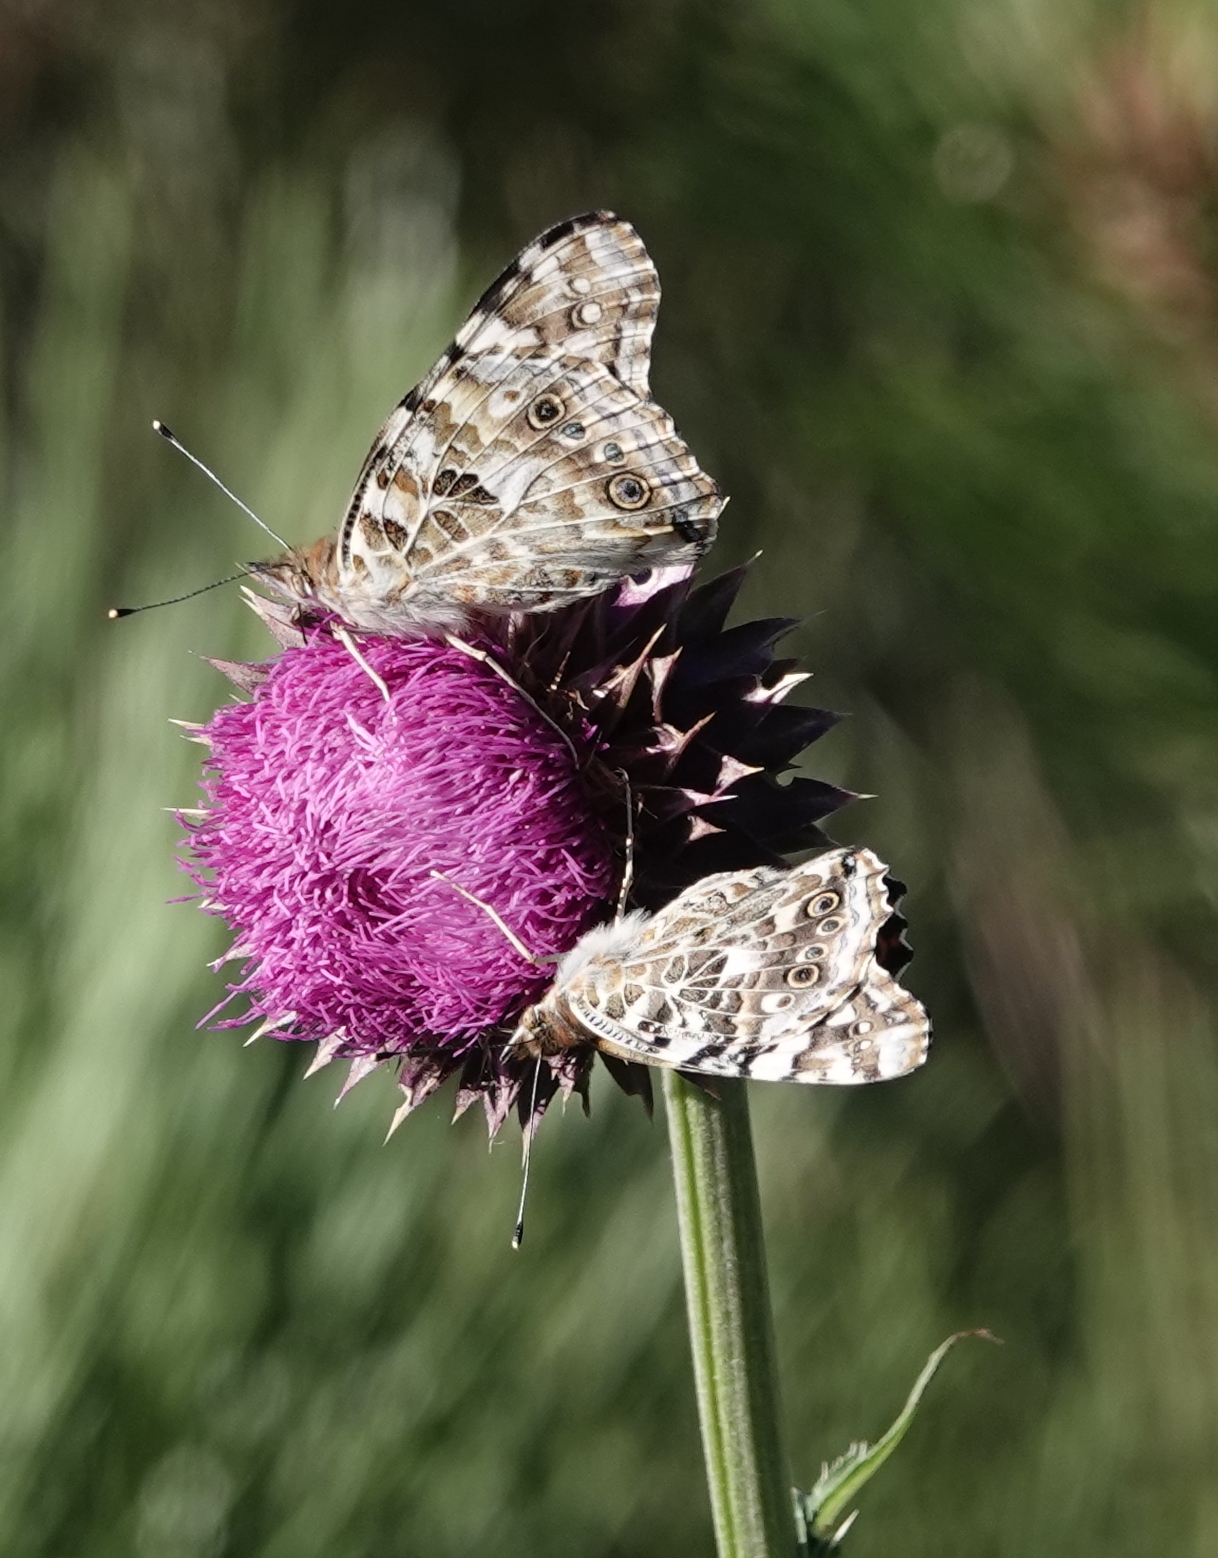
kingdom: Animalia
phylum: Arthropoda
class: Insecta
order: Lepidoptera
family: Nymphalidae
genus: Vanessa
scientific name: Vanessa cardui
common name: Painted lady
